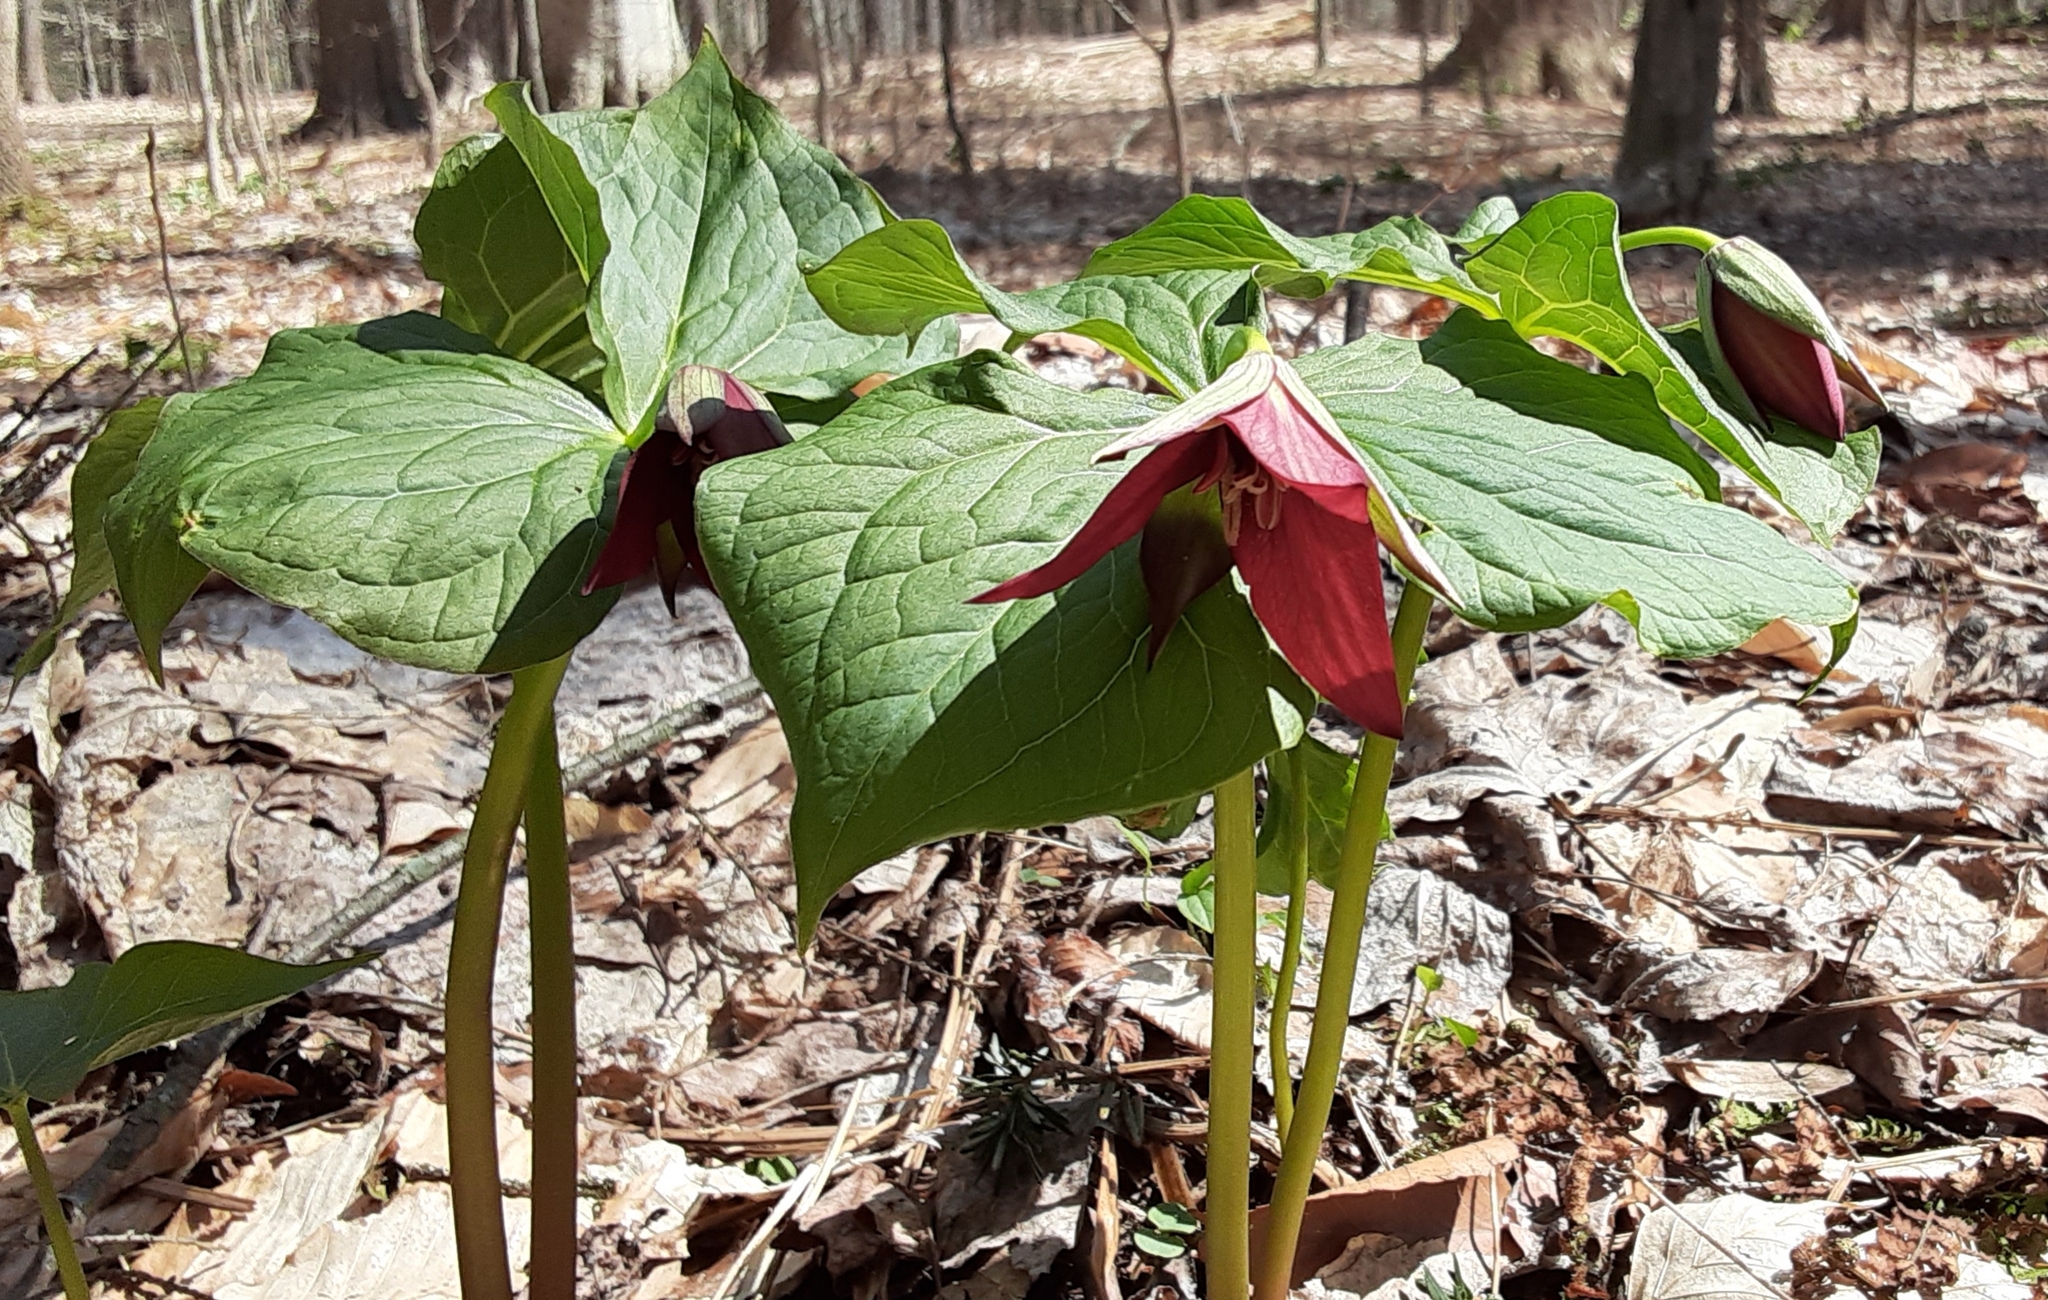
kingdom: Plantae
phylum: Tracheophyta
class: Liliopsida
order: Liliales
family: Melanthiaceae
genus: Trillium
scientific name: Trillium erectum
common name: Purple trillium
